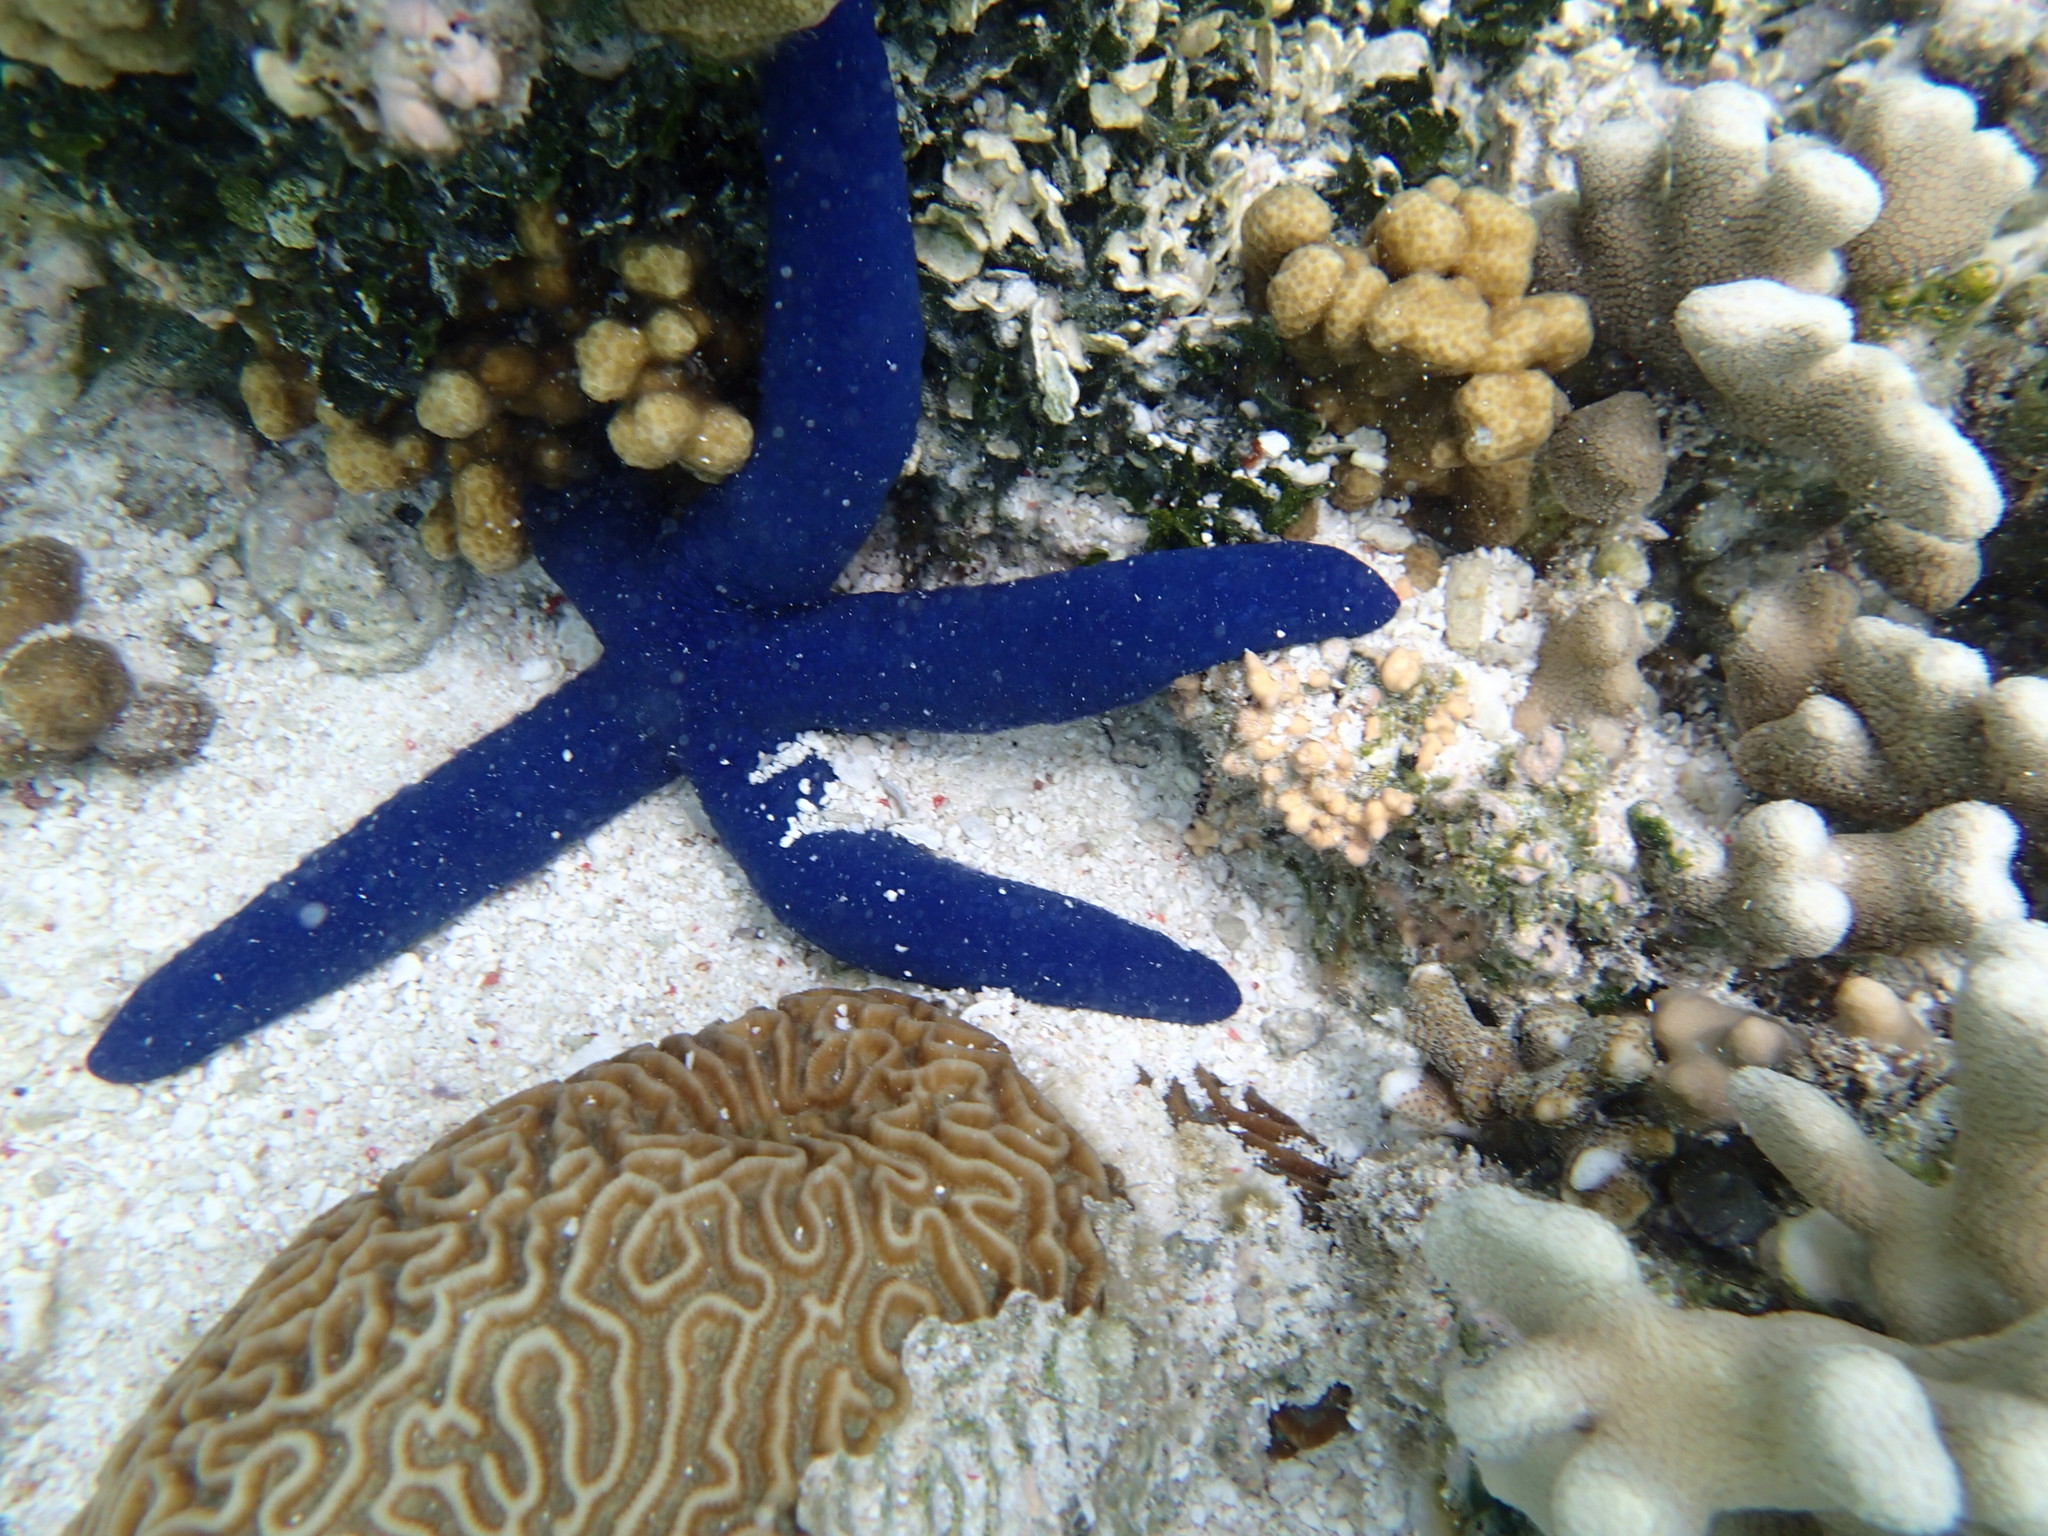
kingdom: Animalia
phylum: Echinodermata
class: Asteroidea
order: Valvatida
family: Ophidiasteridae
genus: Linckia
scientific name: Linckia laevigata
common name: Azure sea star
